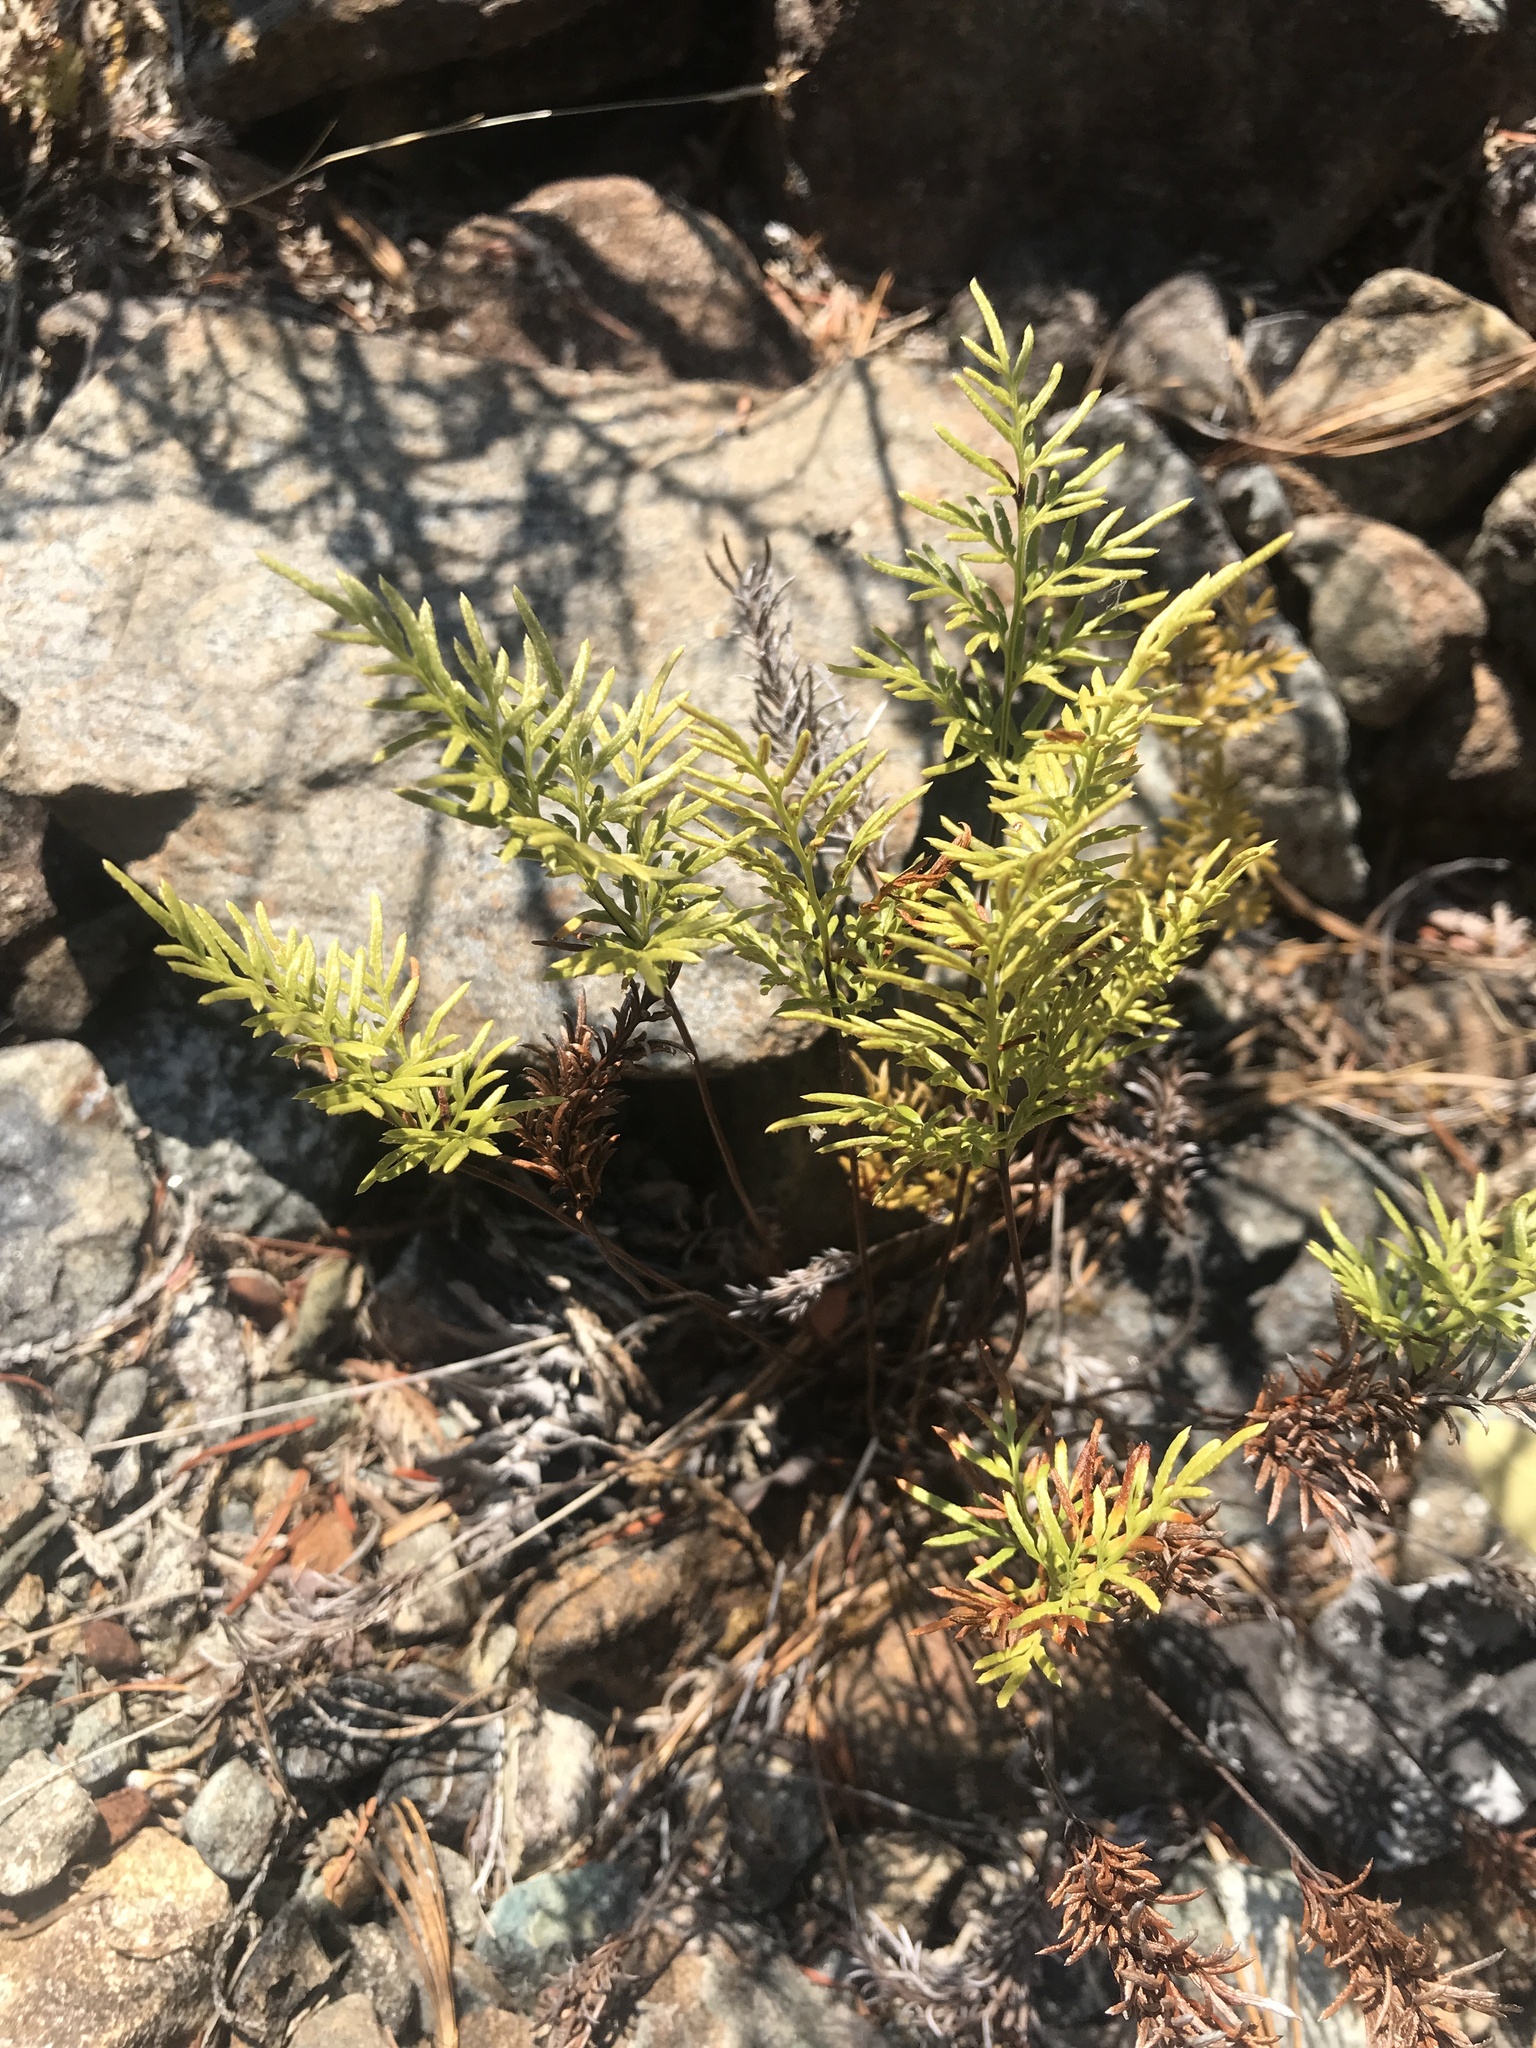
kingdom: Plantae
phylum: Tracheophyta
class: Polypodiopsida
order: Polypodiales
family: Pteridaceae
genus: Aspidotis
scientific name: Aspidotis densa
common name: Indian's dream
